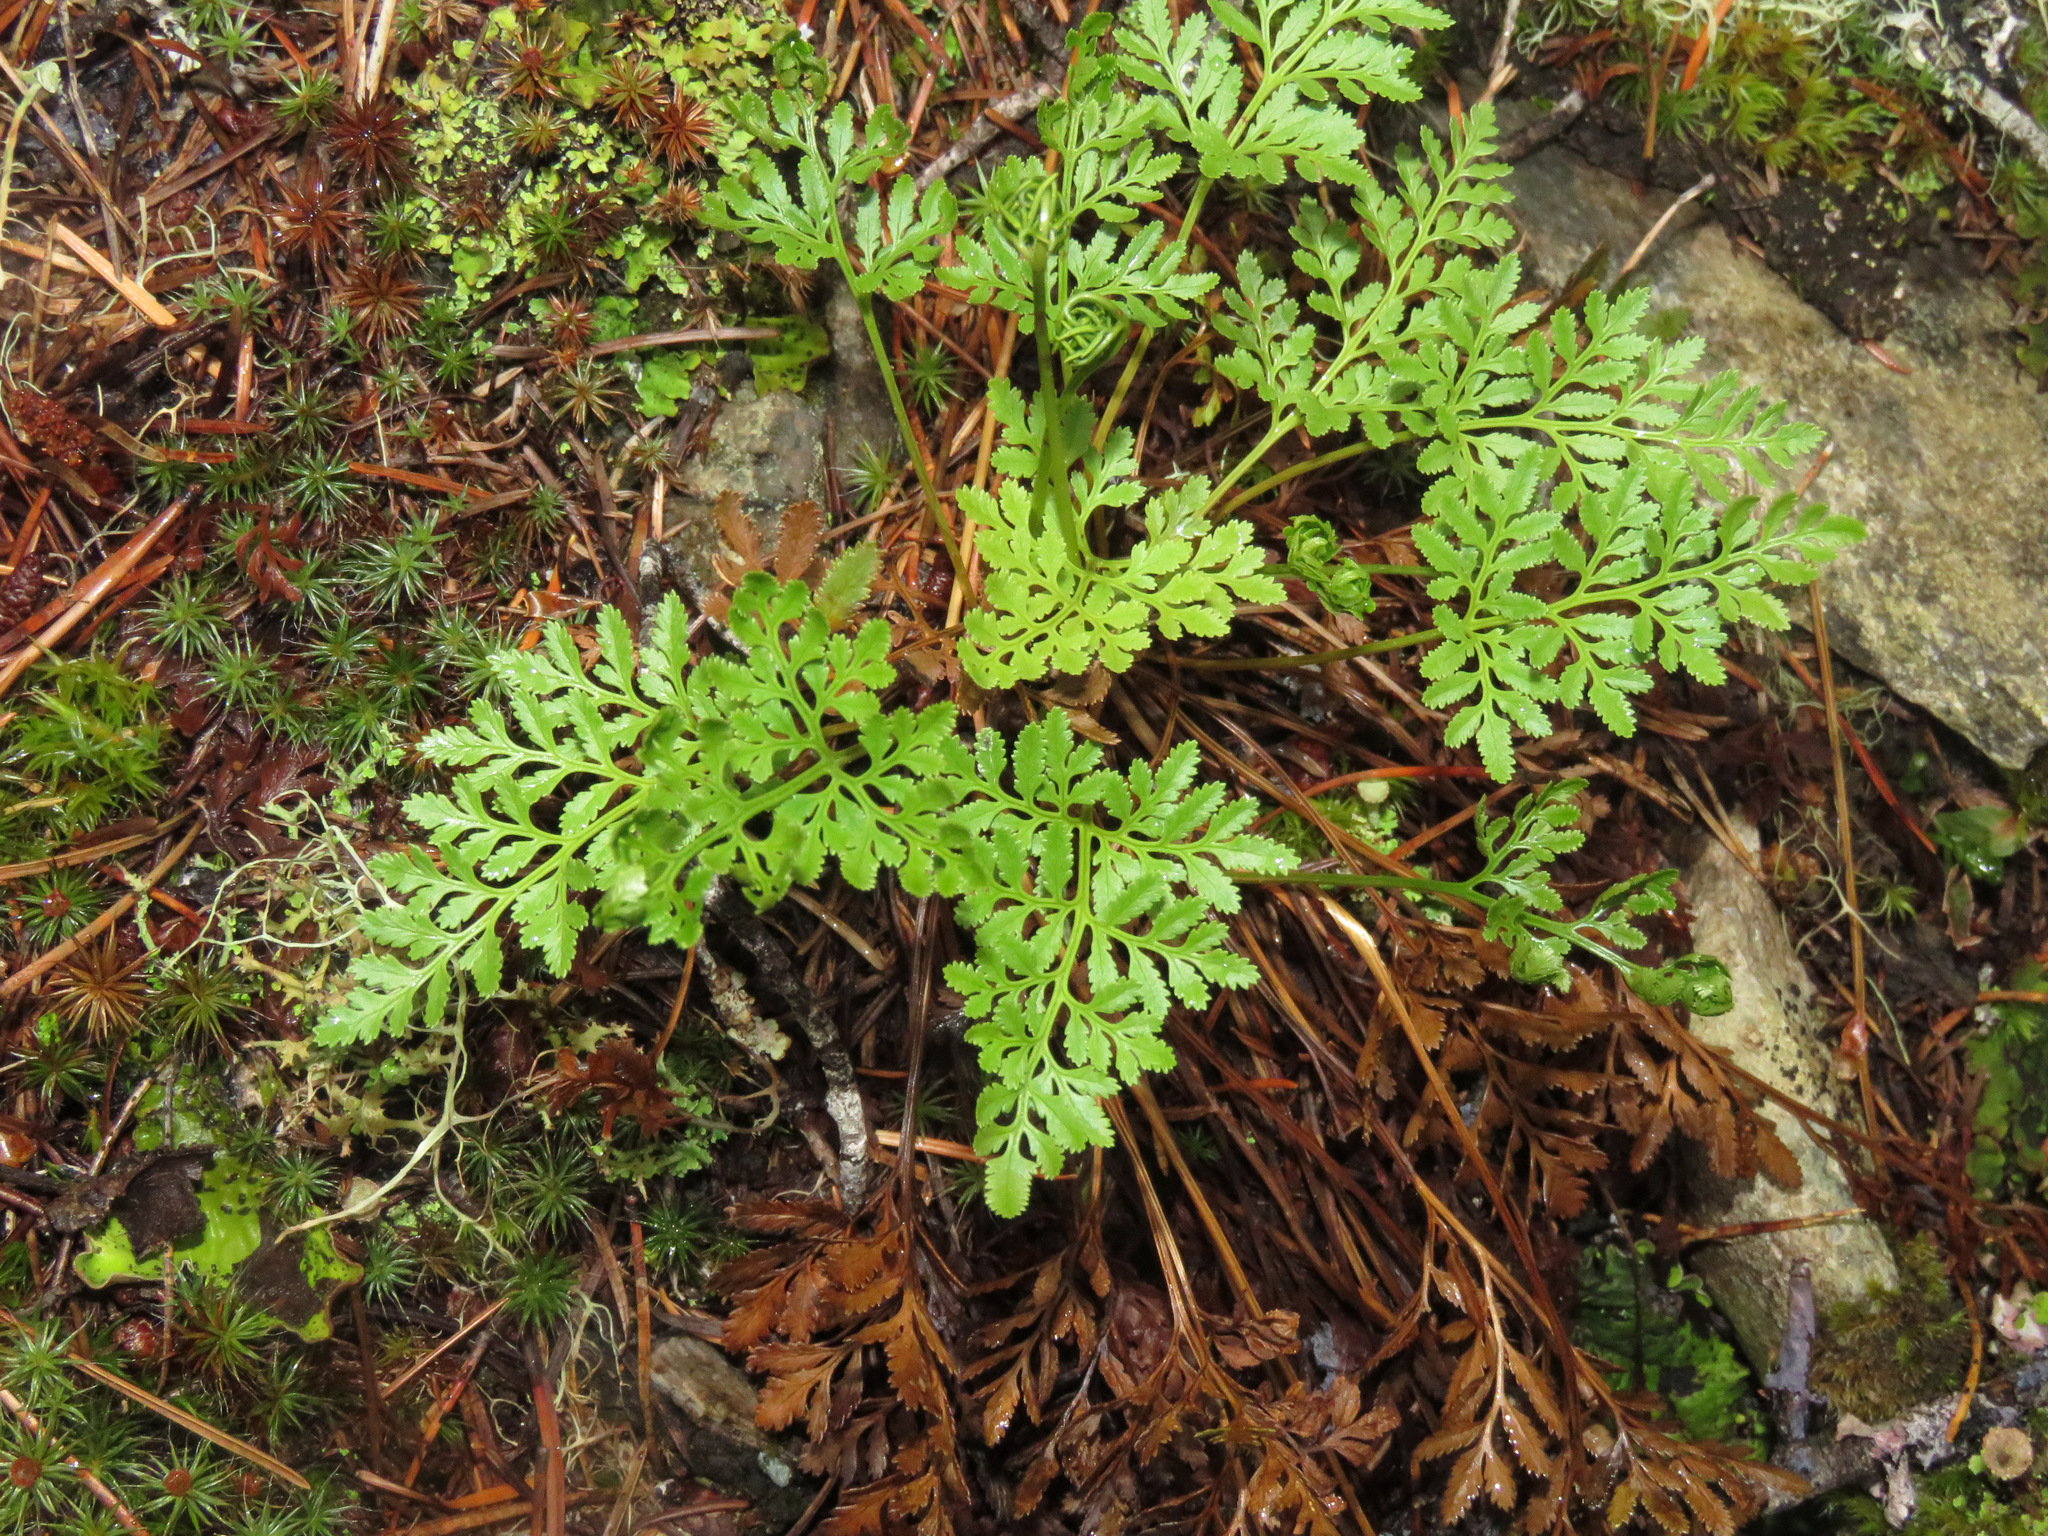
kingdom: Plantae
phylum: Tracheophyta
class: Polypodiopsida
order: Polypodiales
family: Pteridaceae
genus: Cryptogramma
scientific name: Cryptogramma acrostichoides
